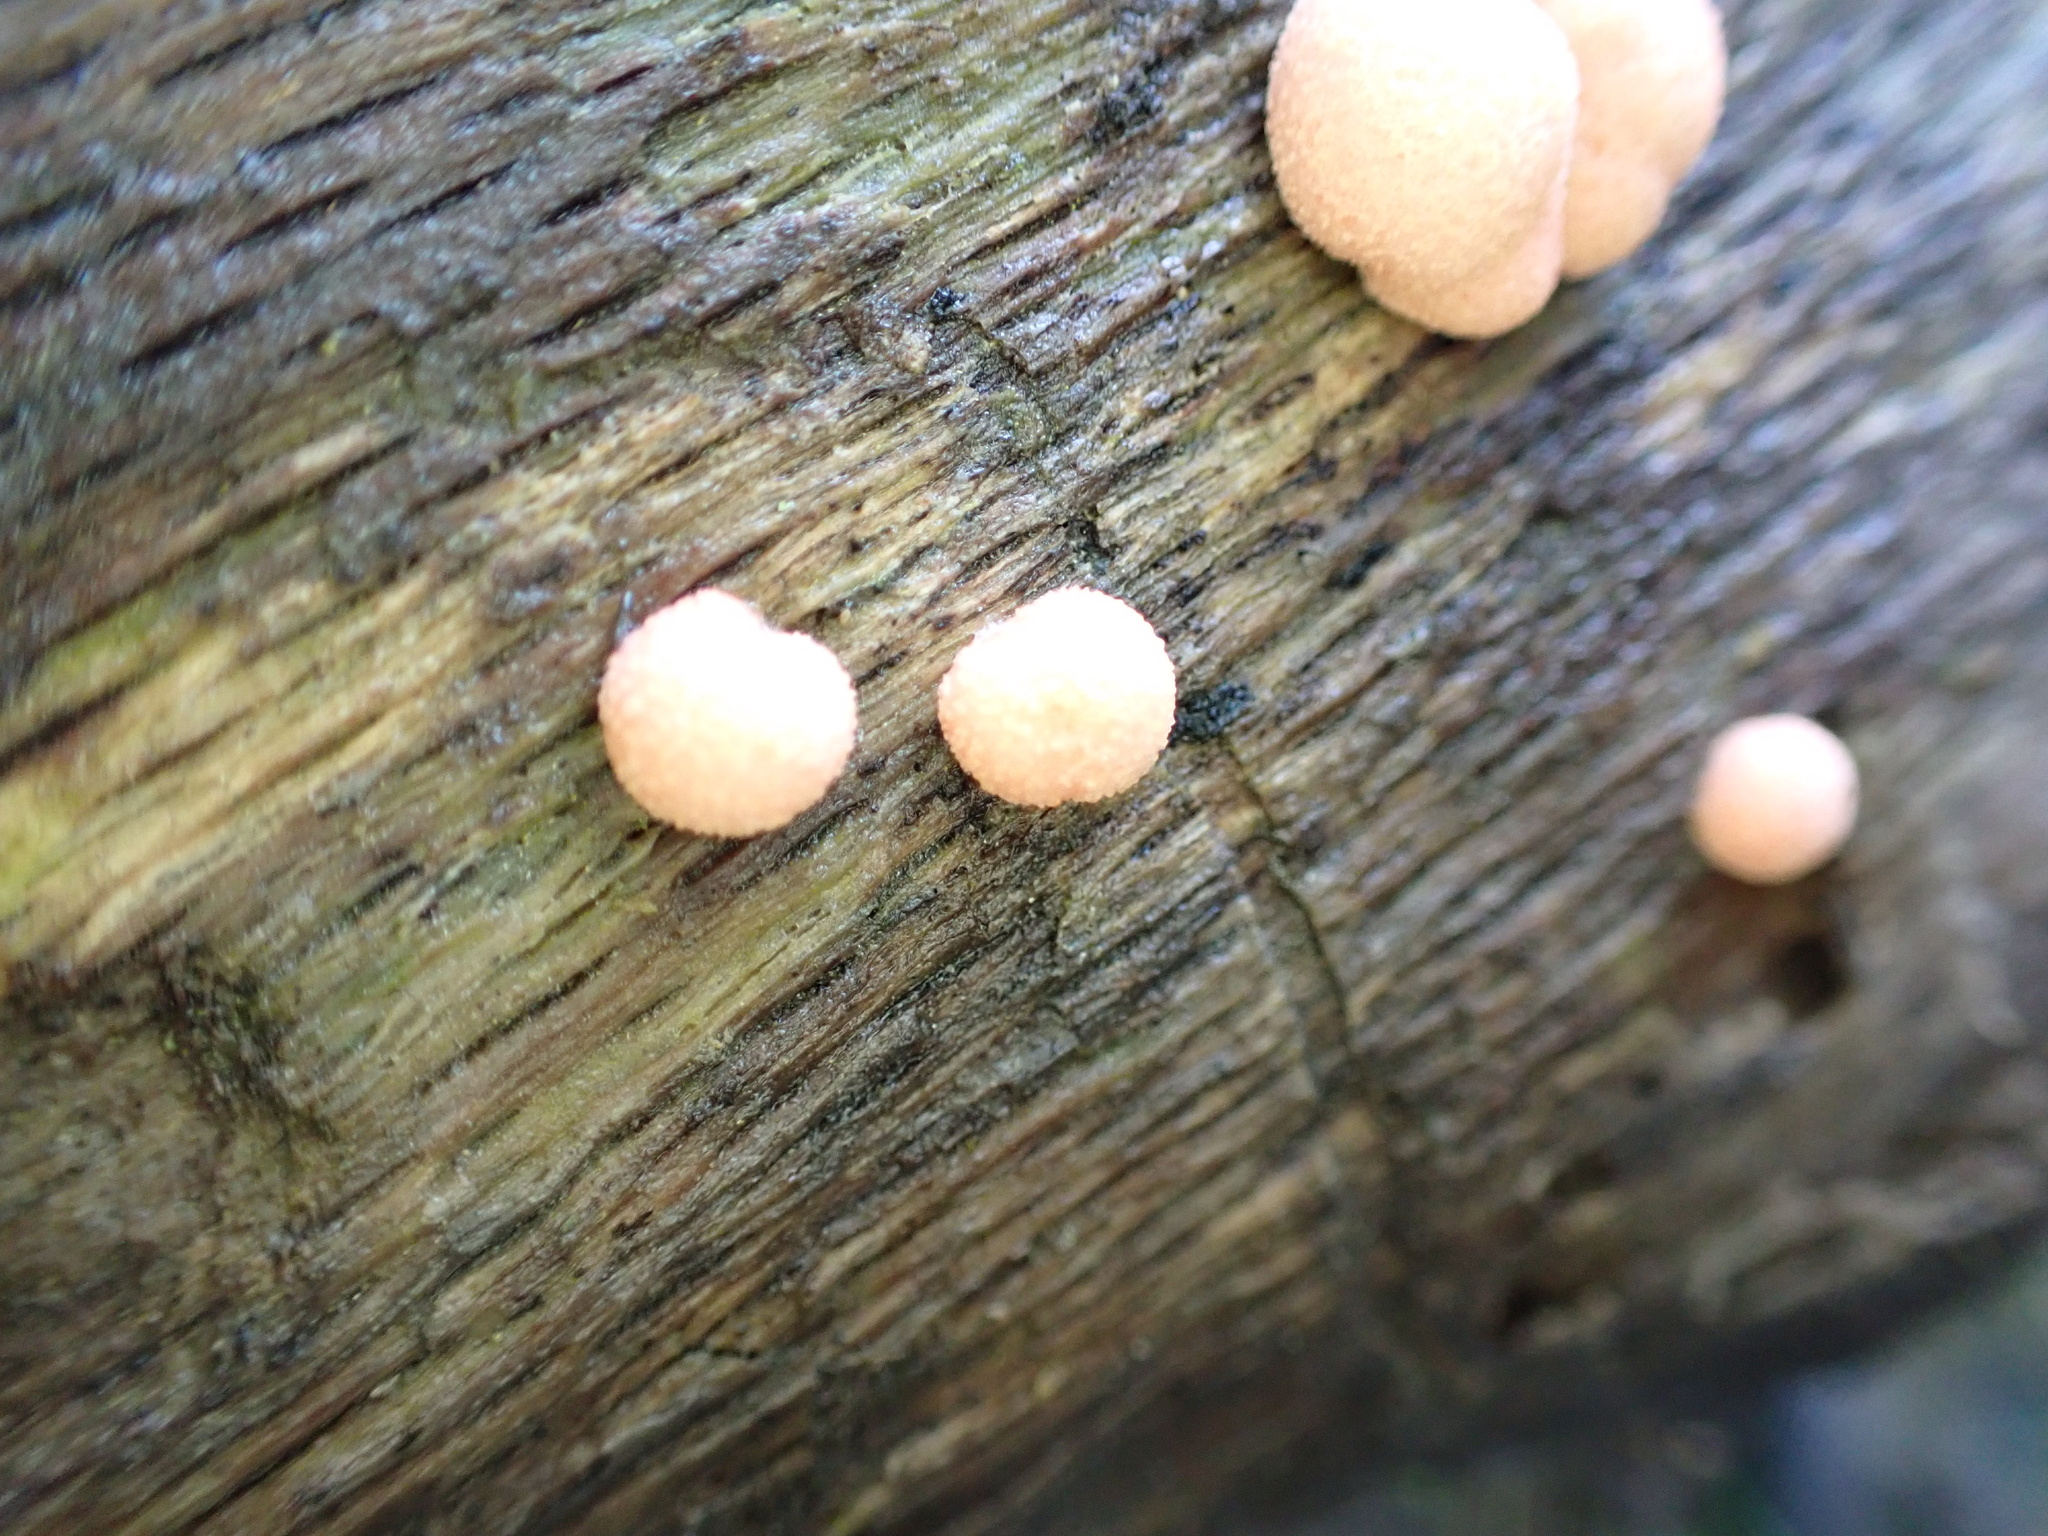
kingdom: Protozoa
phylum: Mycetozoa
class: Myxomycetes
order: Cribrariales
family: Tubiferaceae
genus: Lycogala
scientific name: Lycogala epidendrum
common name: Wolf's milk
